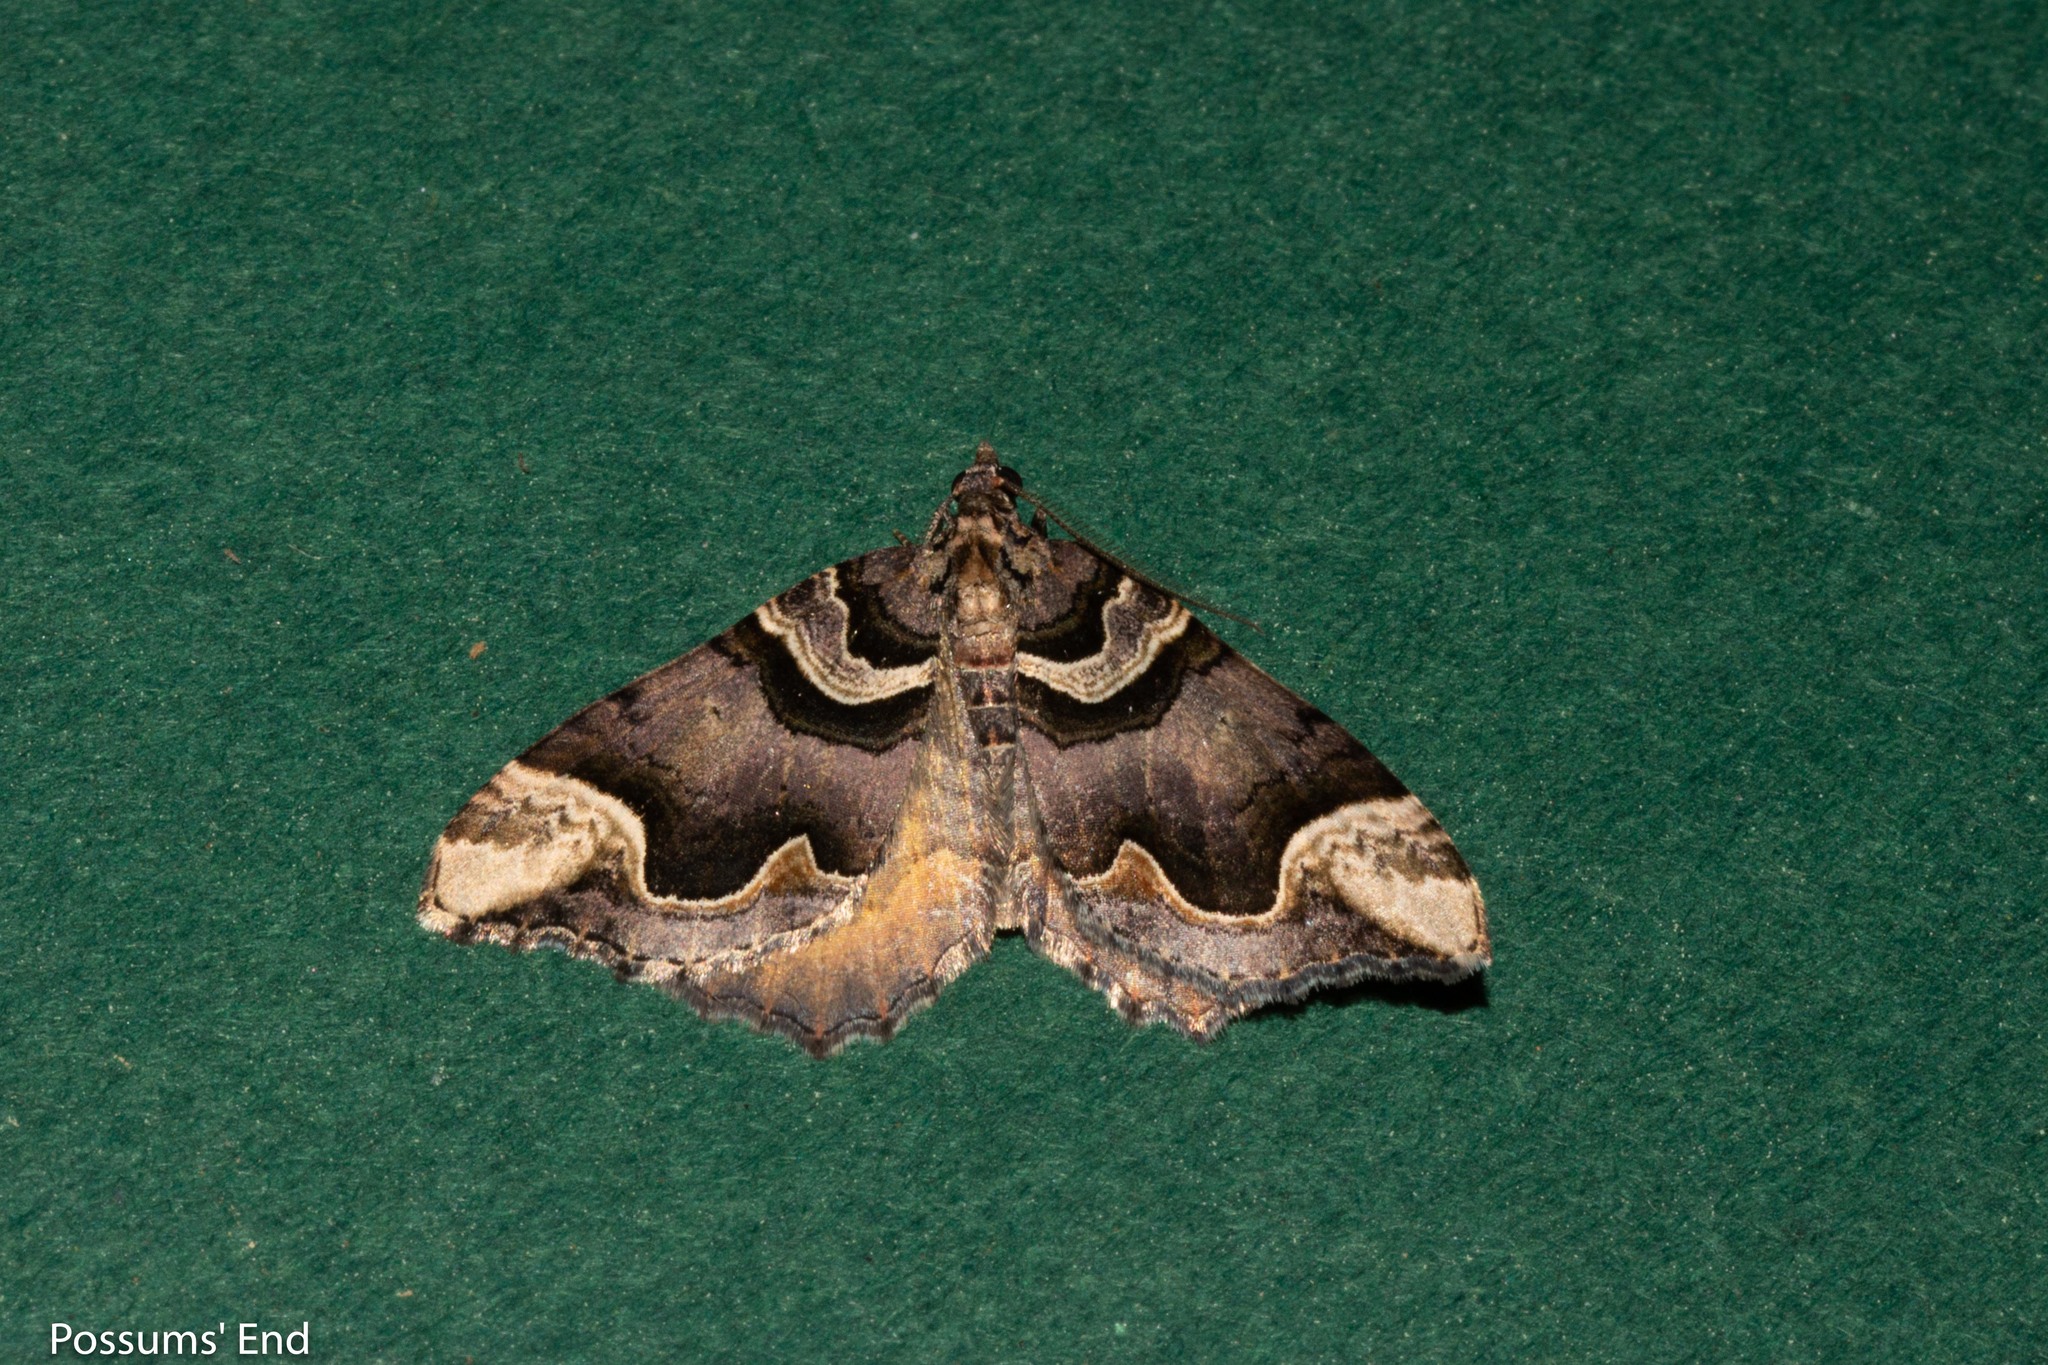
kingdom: Animalia
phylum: Arthropoda
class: Insecta
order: Lepidoptera
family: Geometridae
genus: Asaphodes
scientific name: Asaphodes chlamydota
